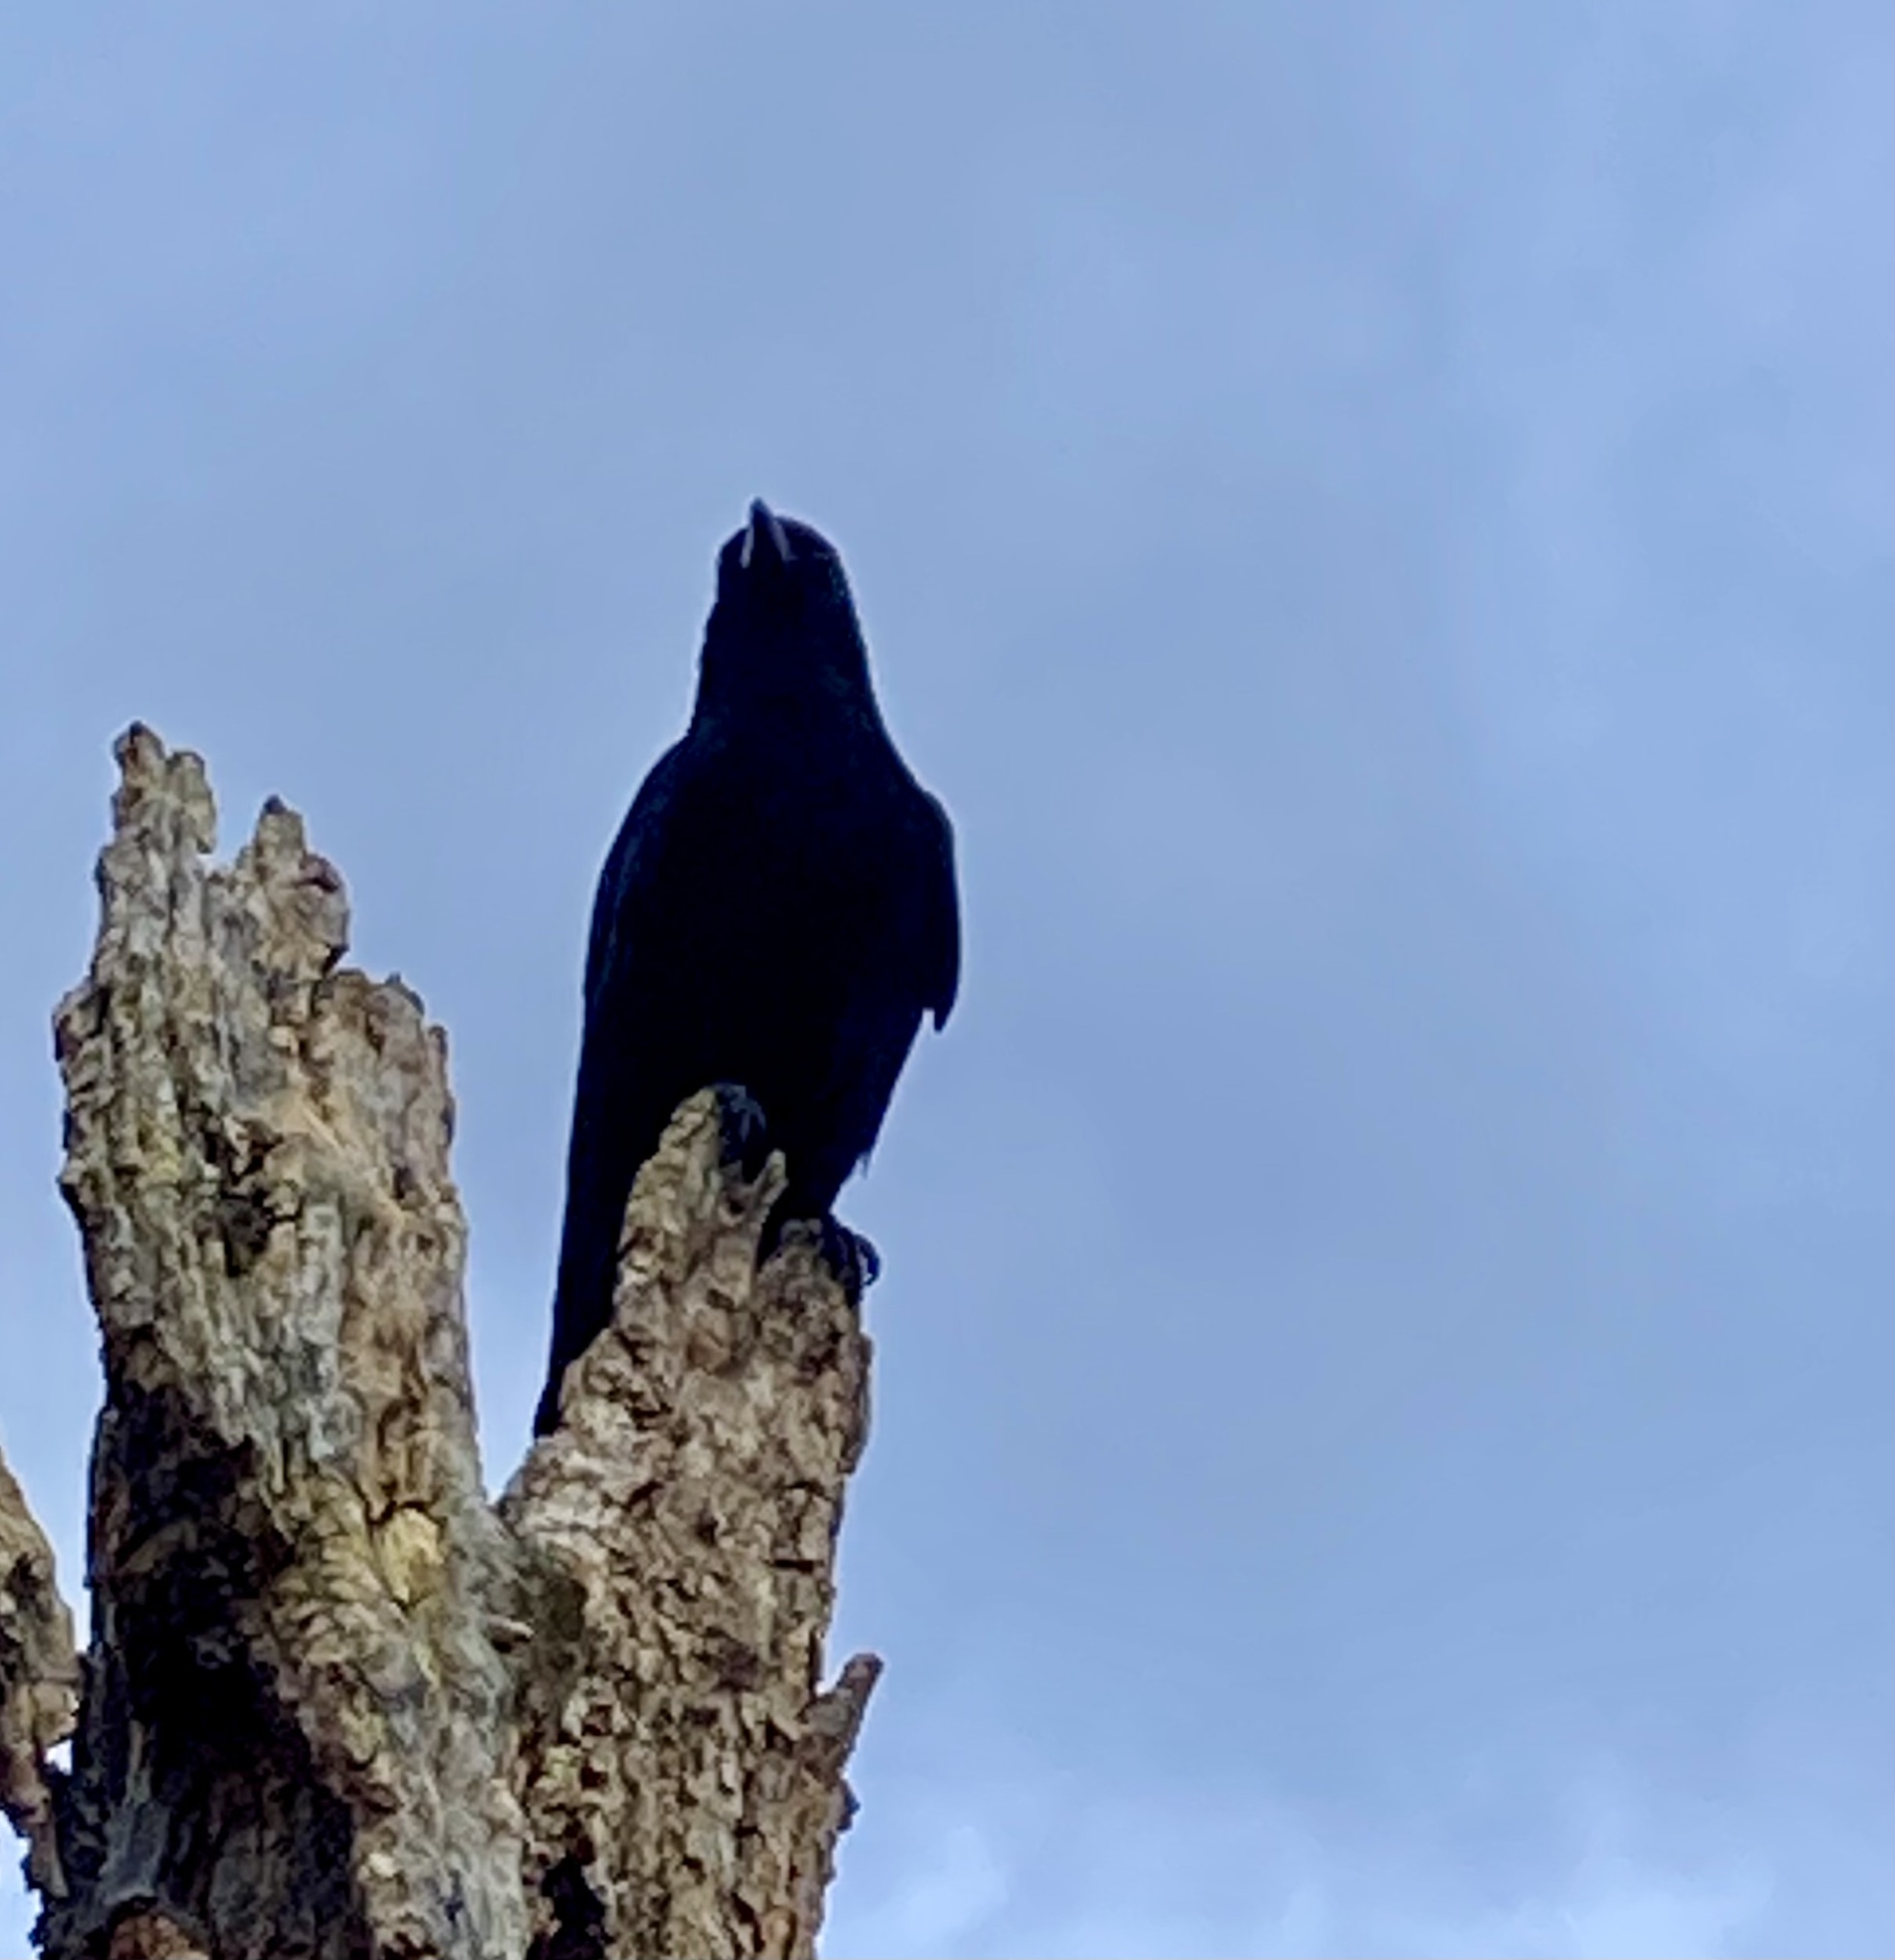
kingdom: Animalia
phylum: Chordata
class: Aves
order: Passeriformes
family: Corvidae
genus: Corvus
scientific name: Corvus corone
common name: Carrion crow
